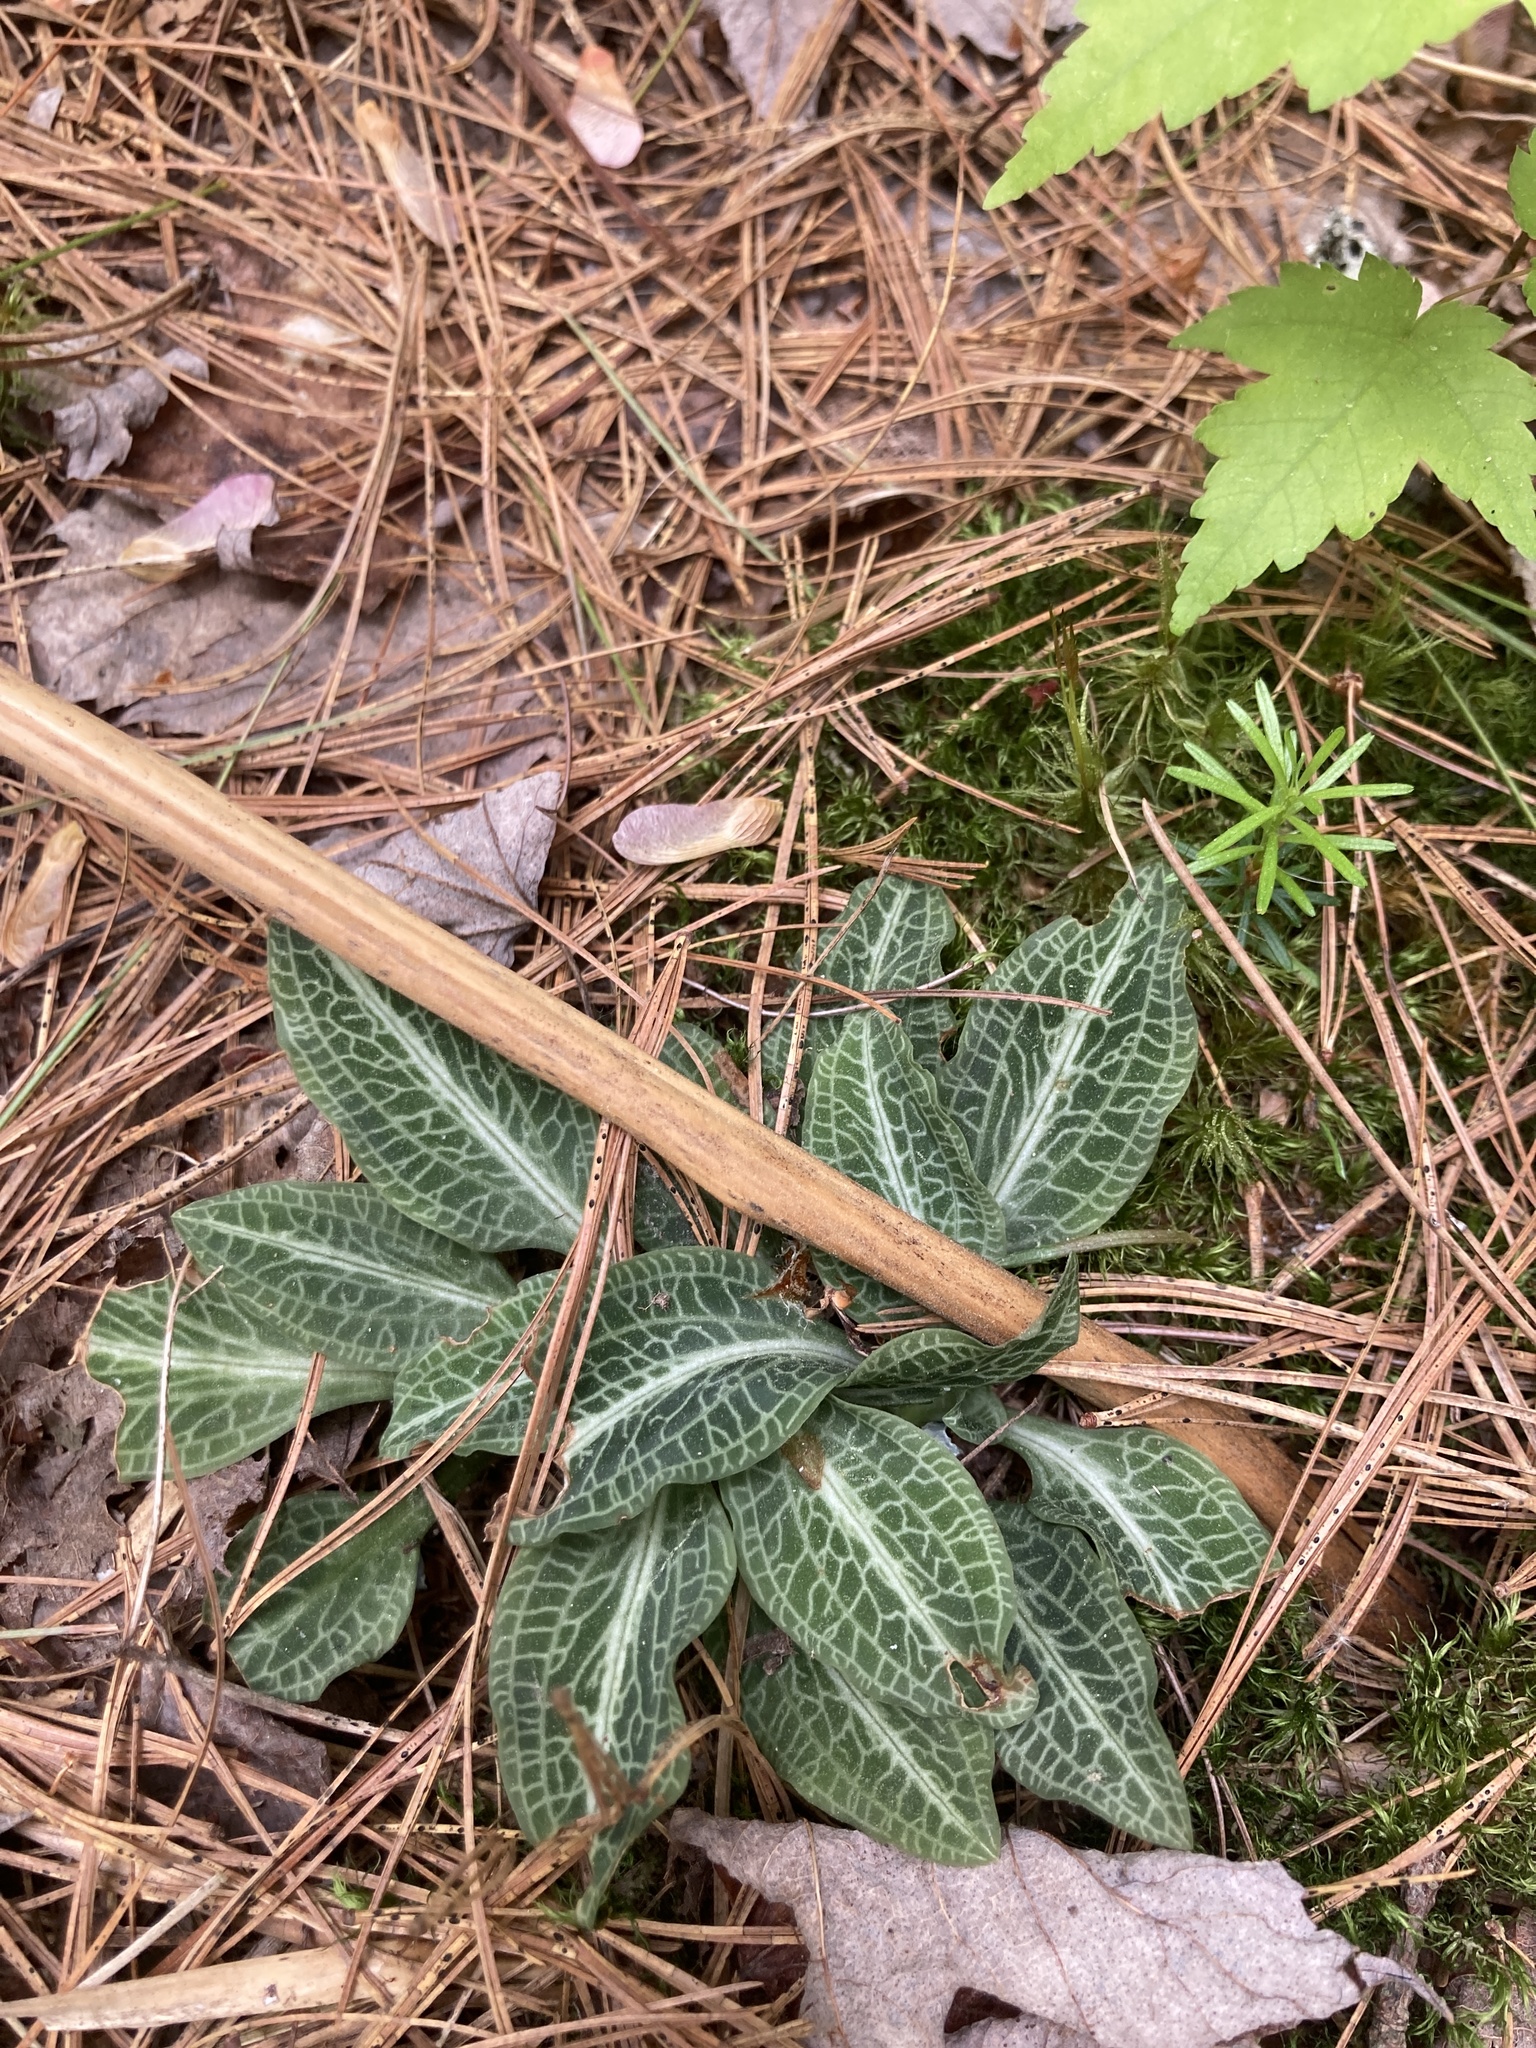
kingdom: Plantae
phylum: Tracheophyta
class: Liliopsida
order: Asparagales
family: Orchidaceae
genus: Goodyera
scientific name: Goodyera pubescens
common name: Downy rattlesnake-plantain
